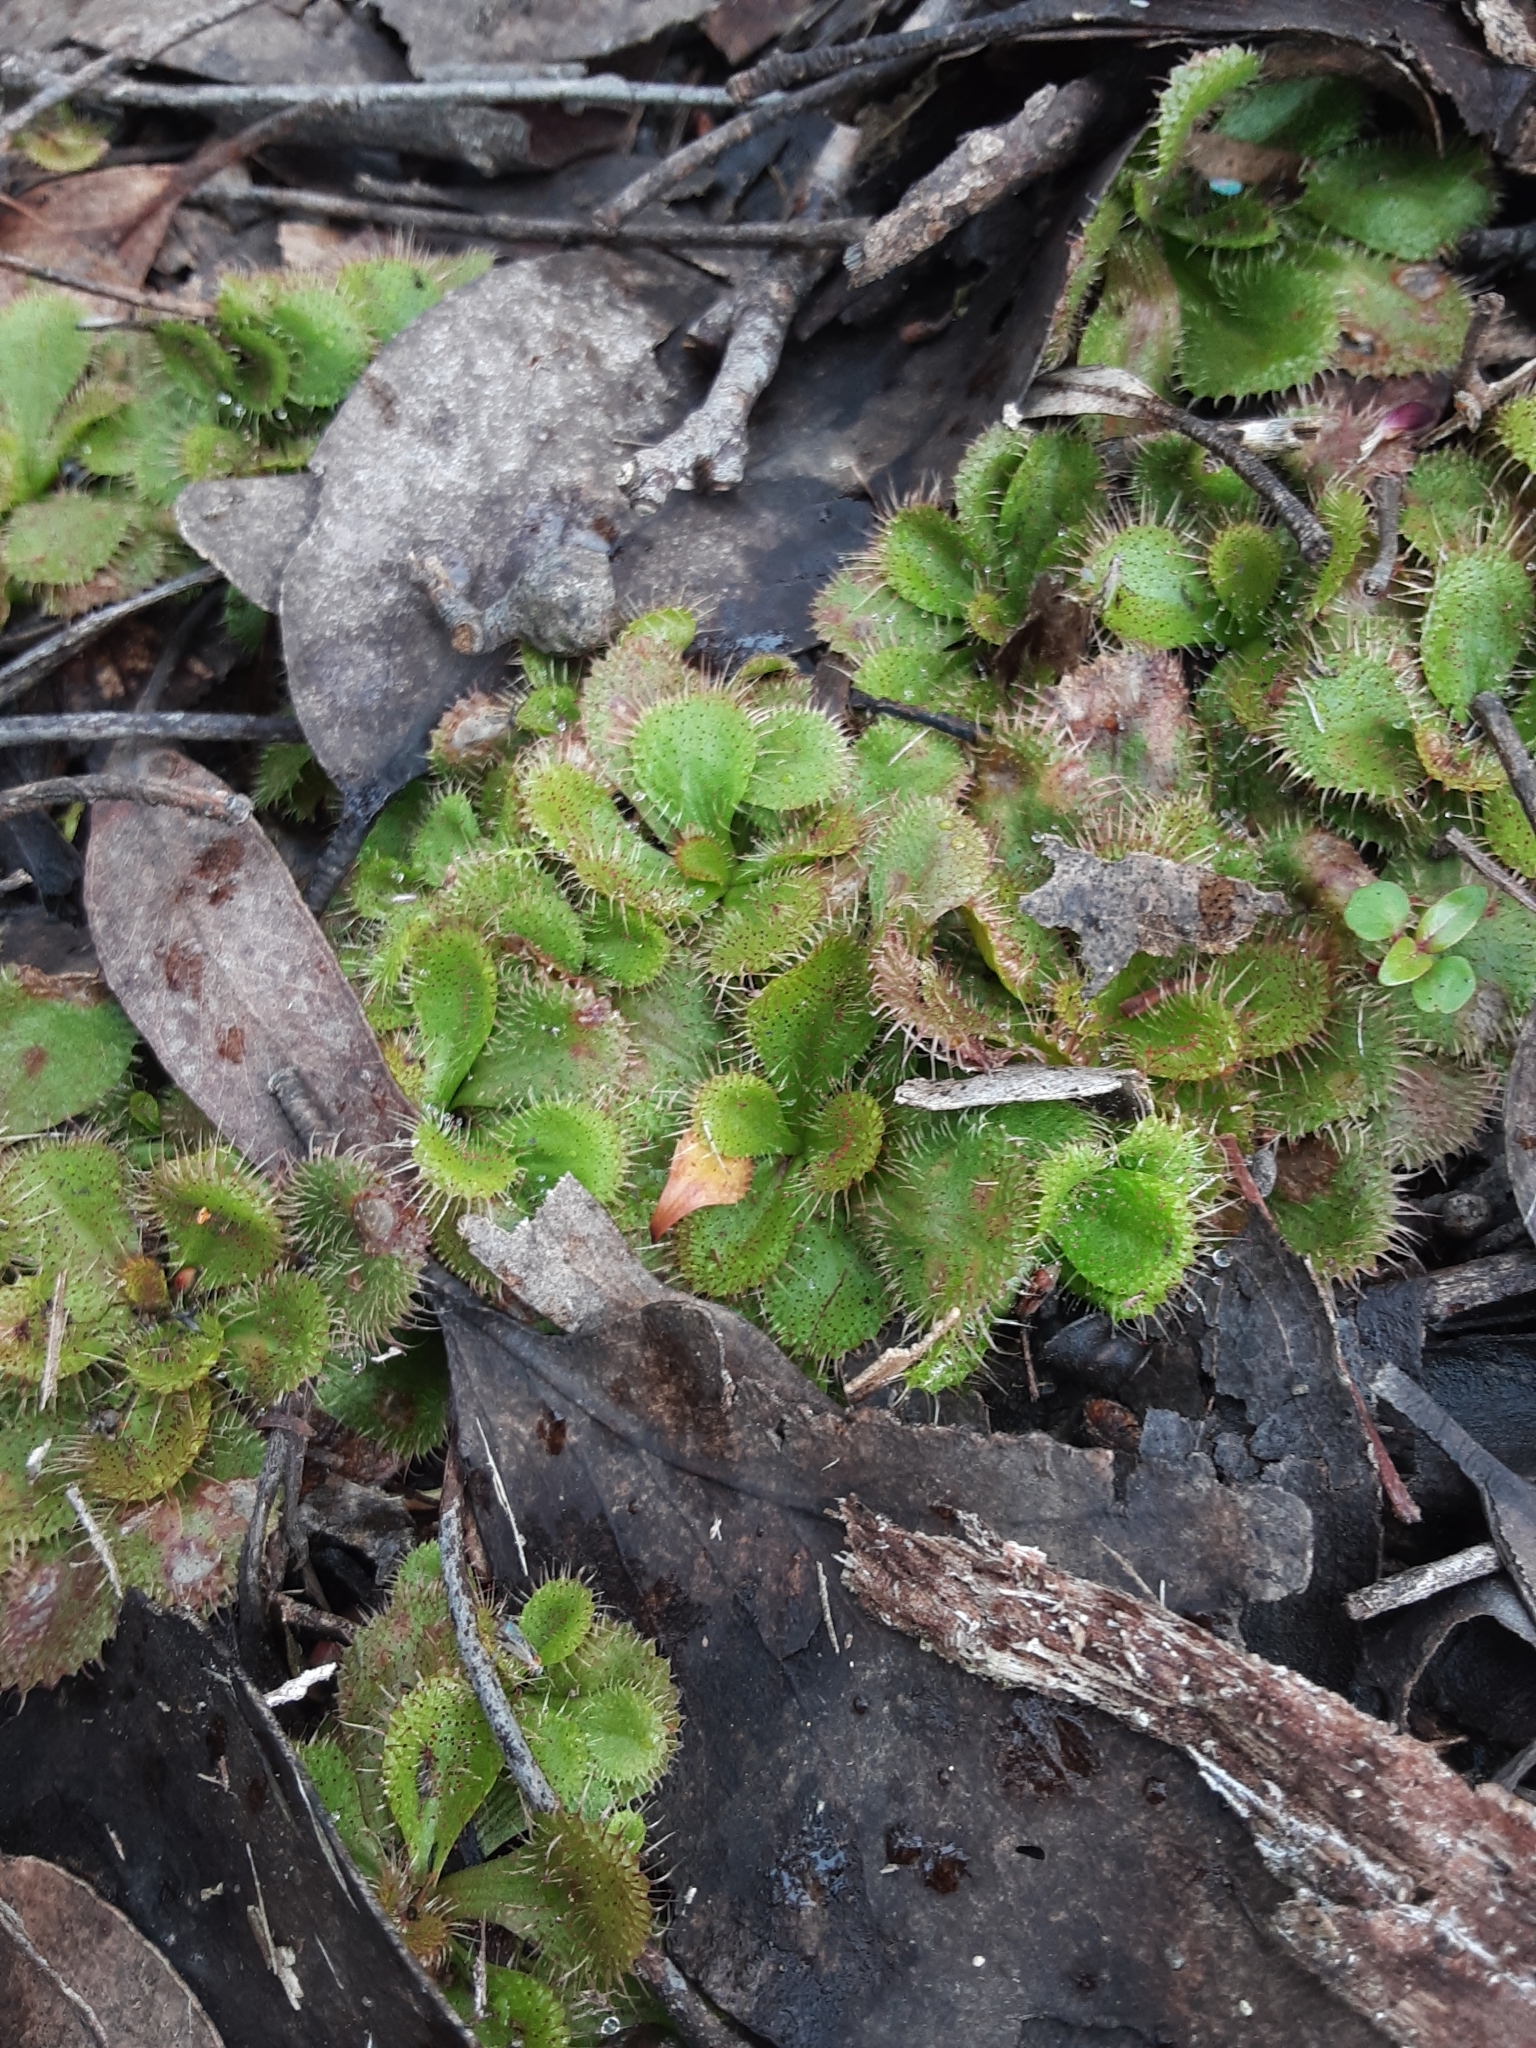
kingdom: Plantae
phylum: Tracheophyta
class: Magnoliopsida
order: Caryophyllales
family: Droseraceae
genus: Drosera
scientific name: Drosera aberrans
